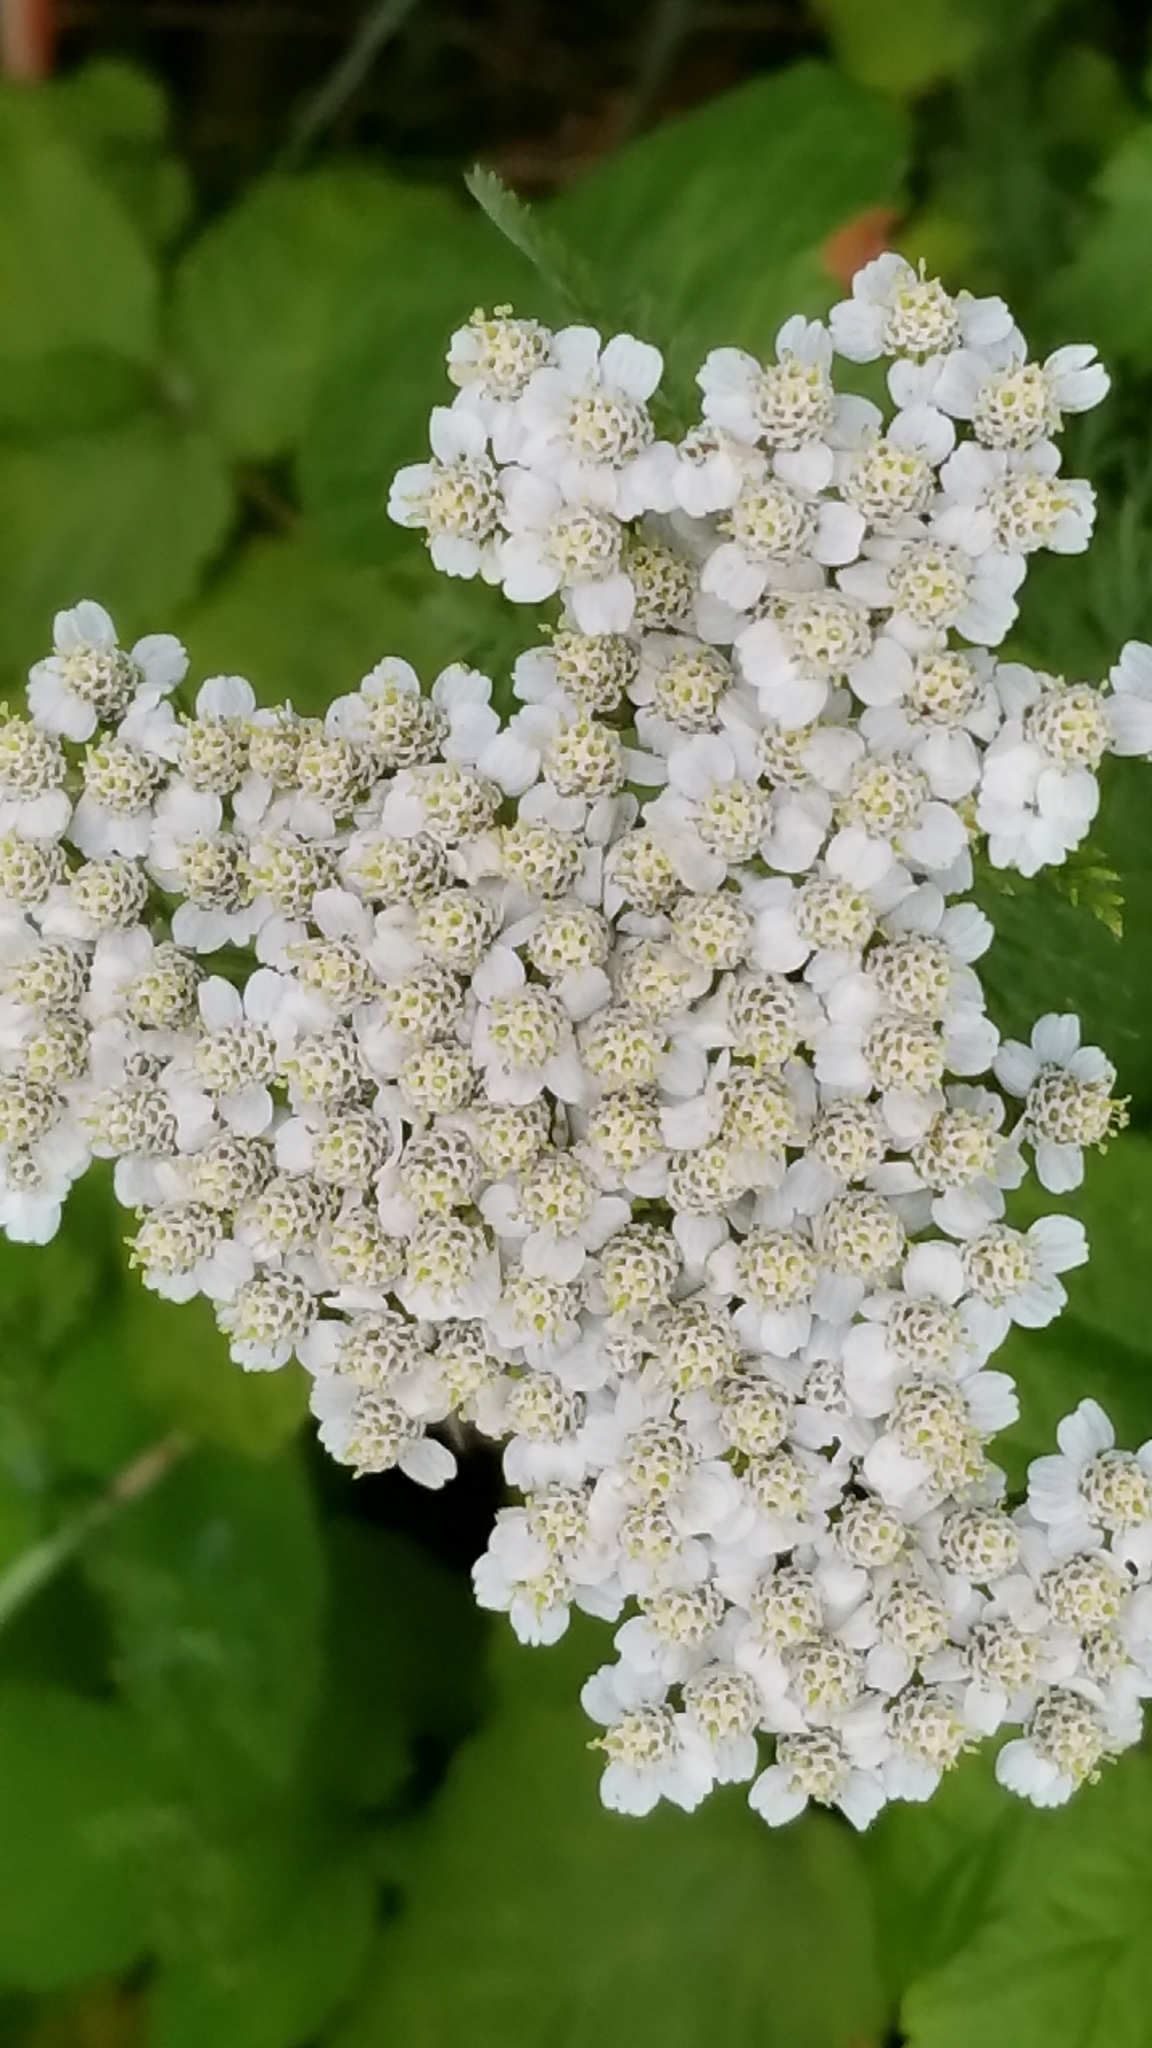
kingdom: Plantae
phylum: Tracheophyta
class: Magnoliopsida
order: Asterales
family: Asteraceae
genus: Achillea
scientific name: Achillea millefolium
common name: Yarrow
